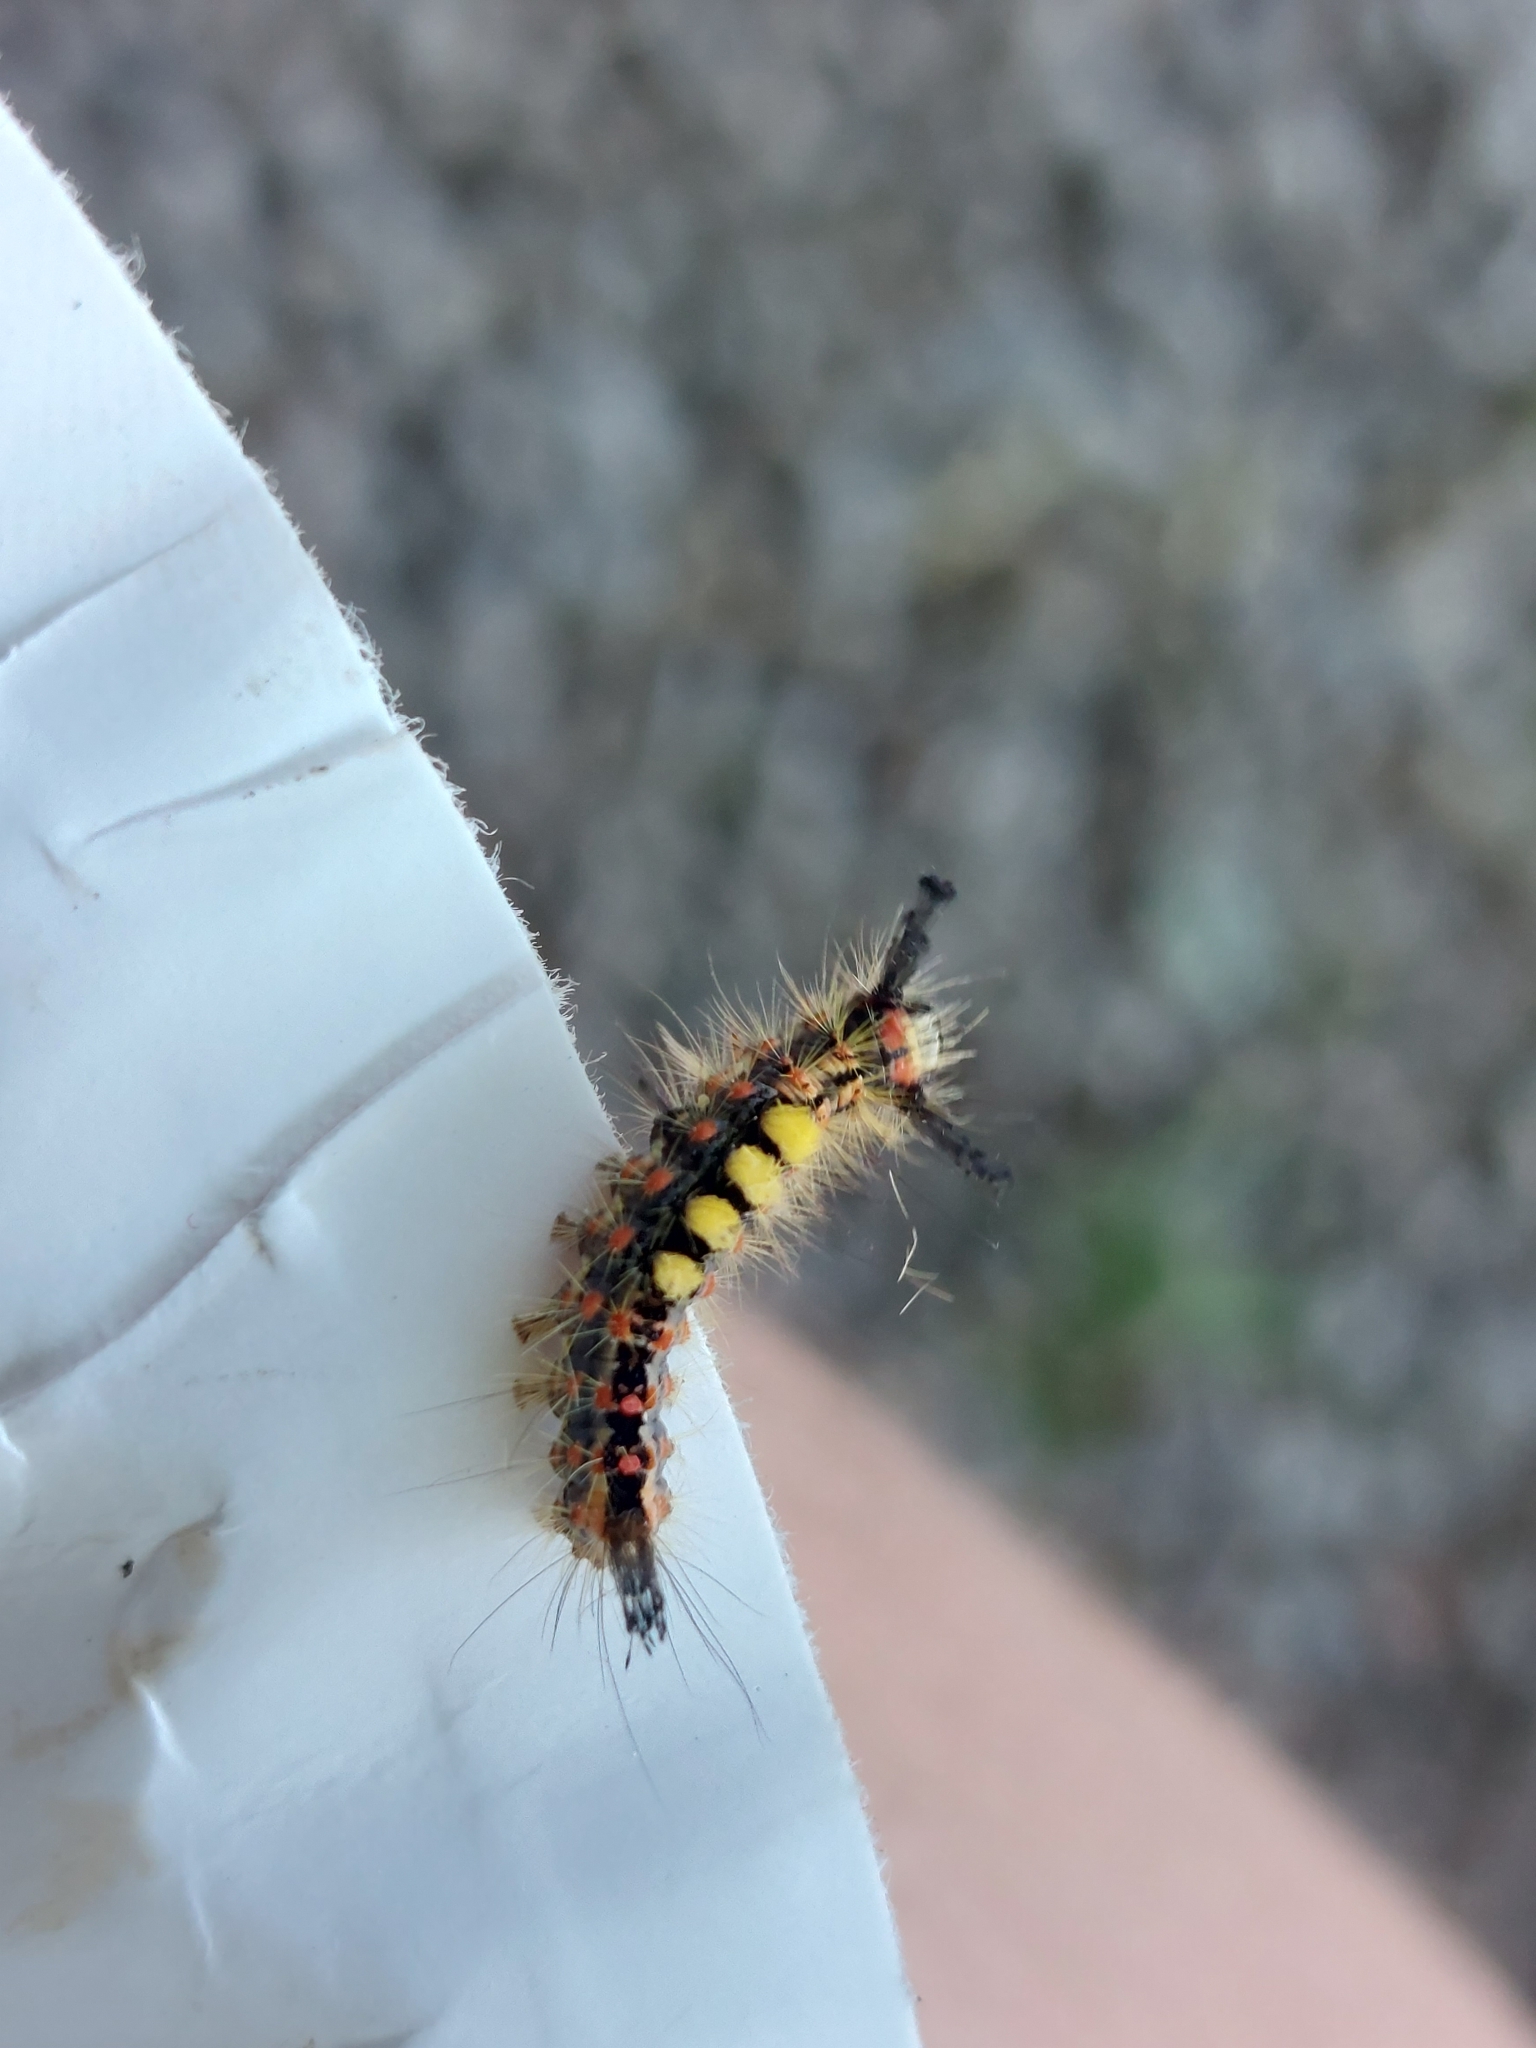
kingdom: Animalia
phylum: Arthropoda
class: Insecta
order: Lepidoptera
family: Erebidae
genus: Orgyia
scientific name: Orgyia antiqua
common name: Vapourer
